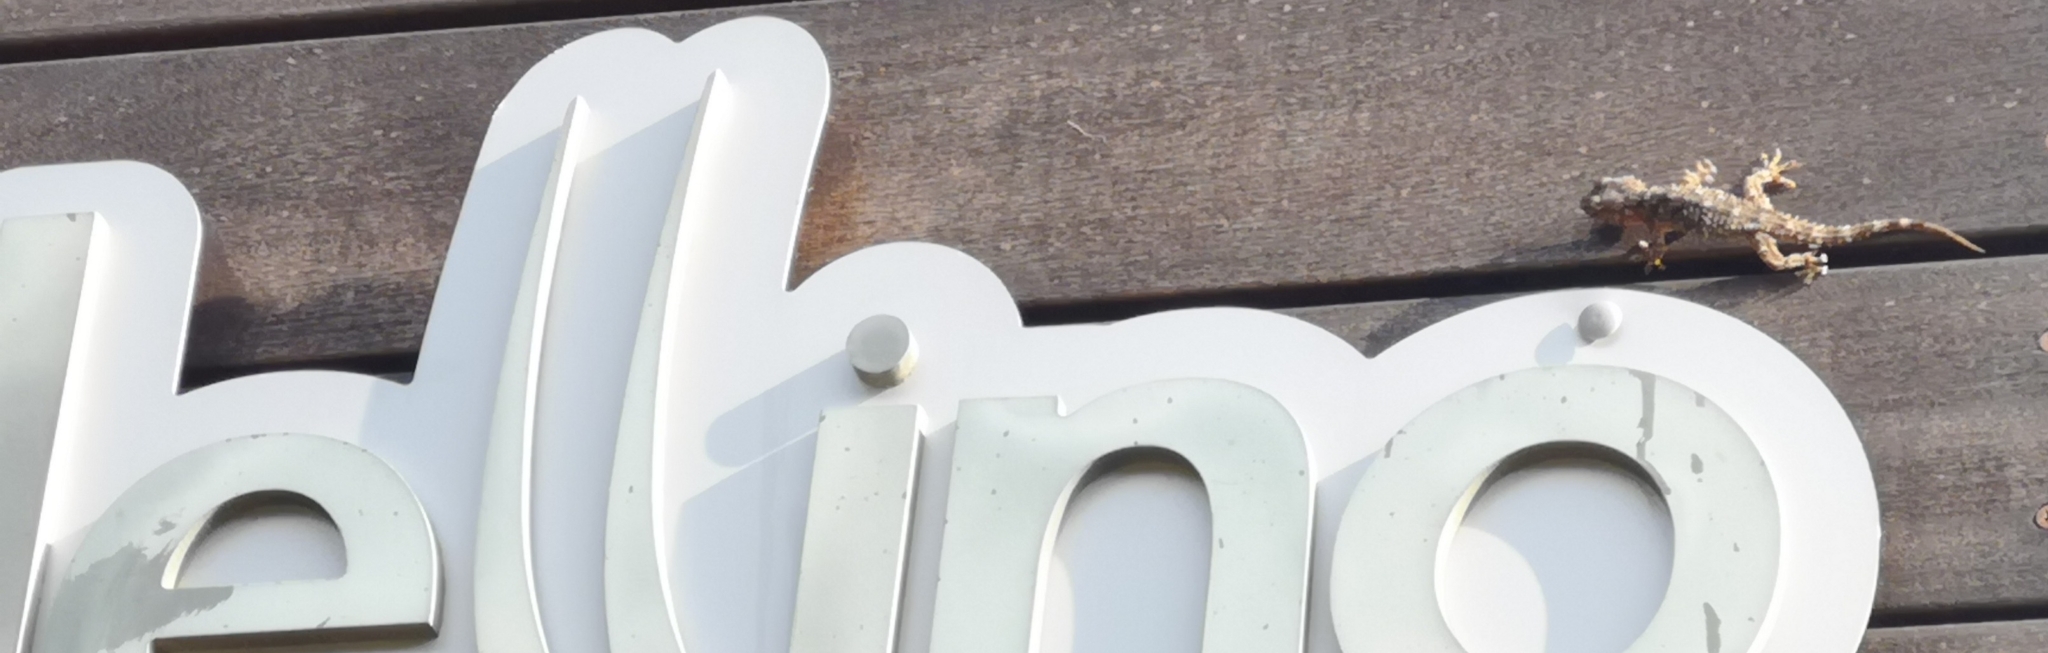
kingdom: Animalia
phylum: Chordata
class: Squamata
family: Phyllodactylidae
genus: Tarentola
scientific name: Tarentola mauritanica
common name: Moorish gecko
